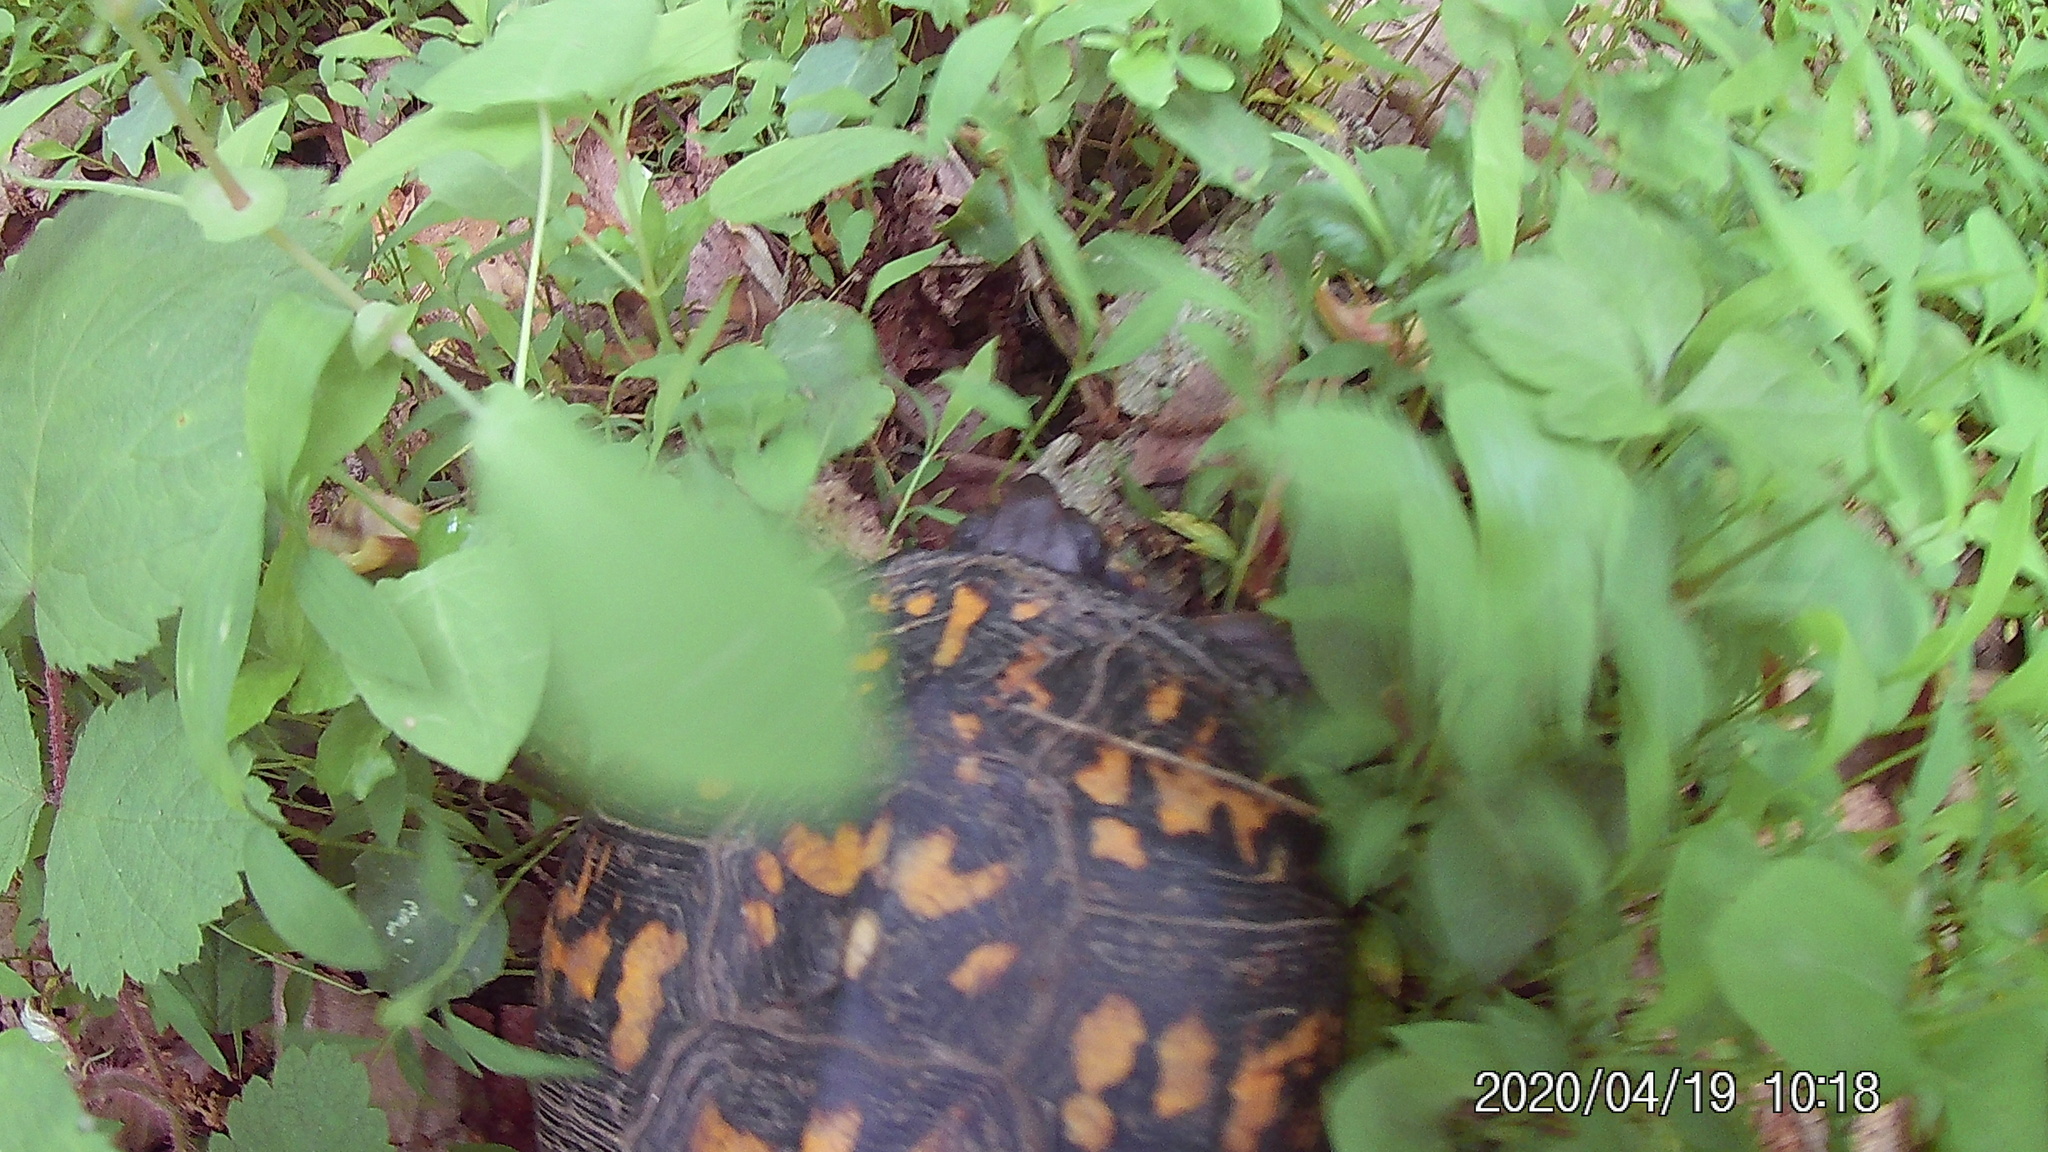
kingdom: Animalia
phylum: Chordata
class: Testudines
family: Emydidae
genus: Terrapene
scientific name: Terrapene carolina
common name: Common box turtle
